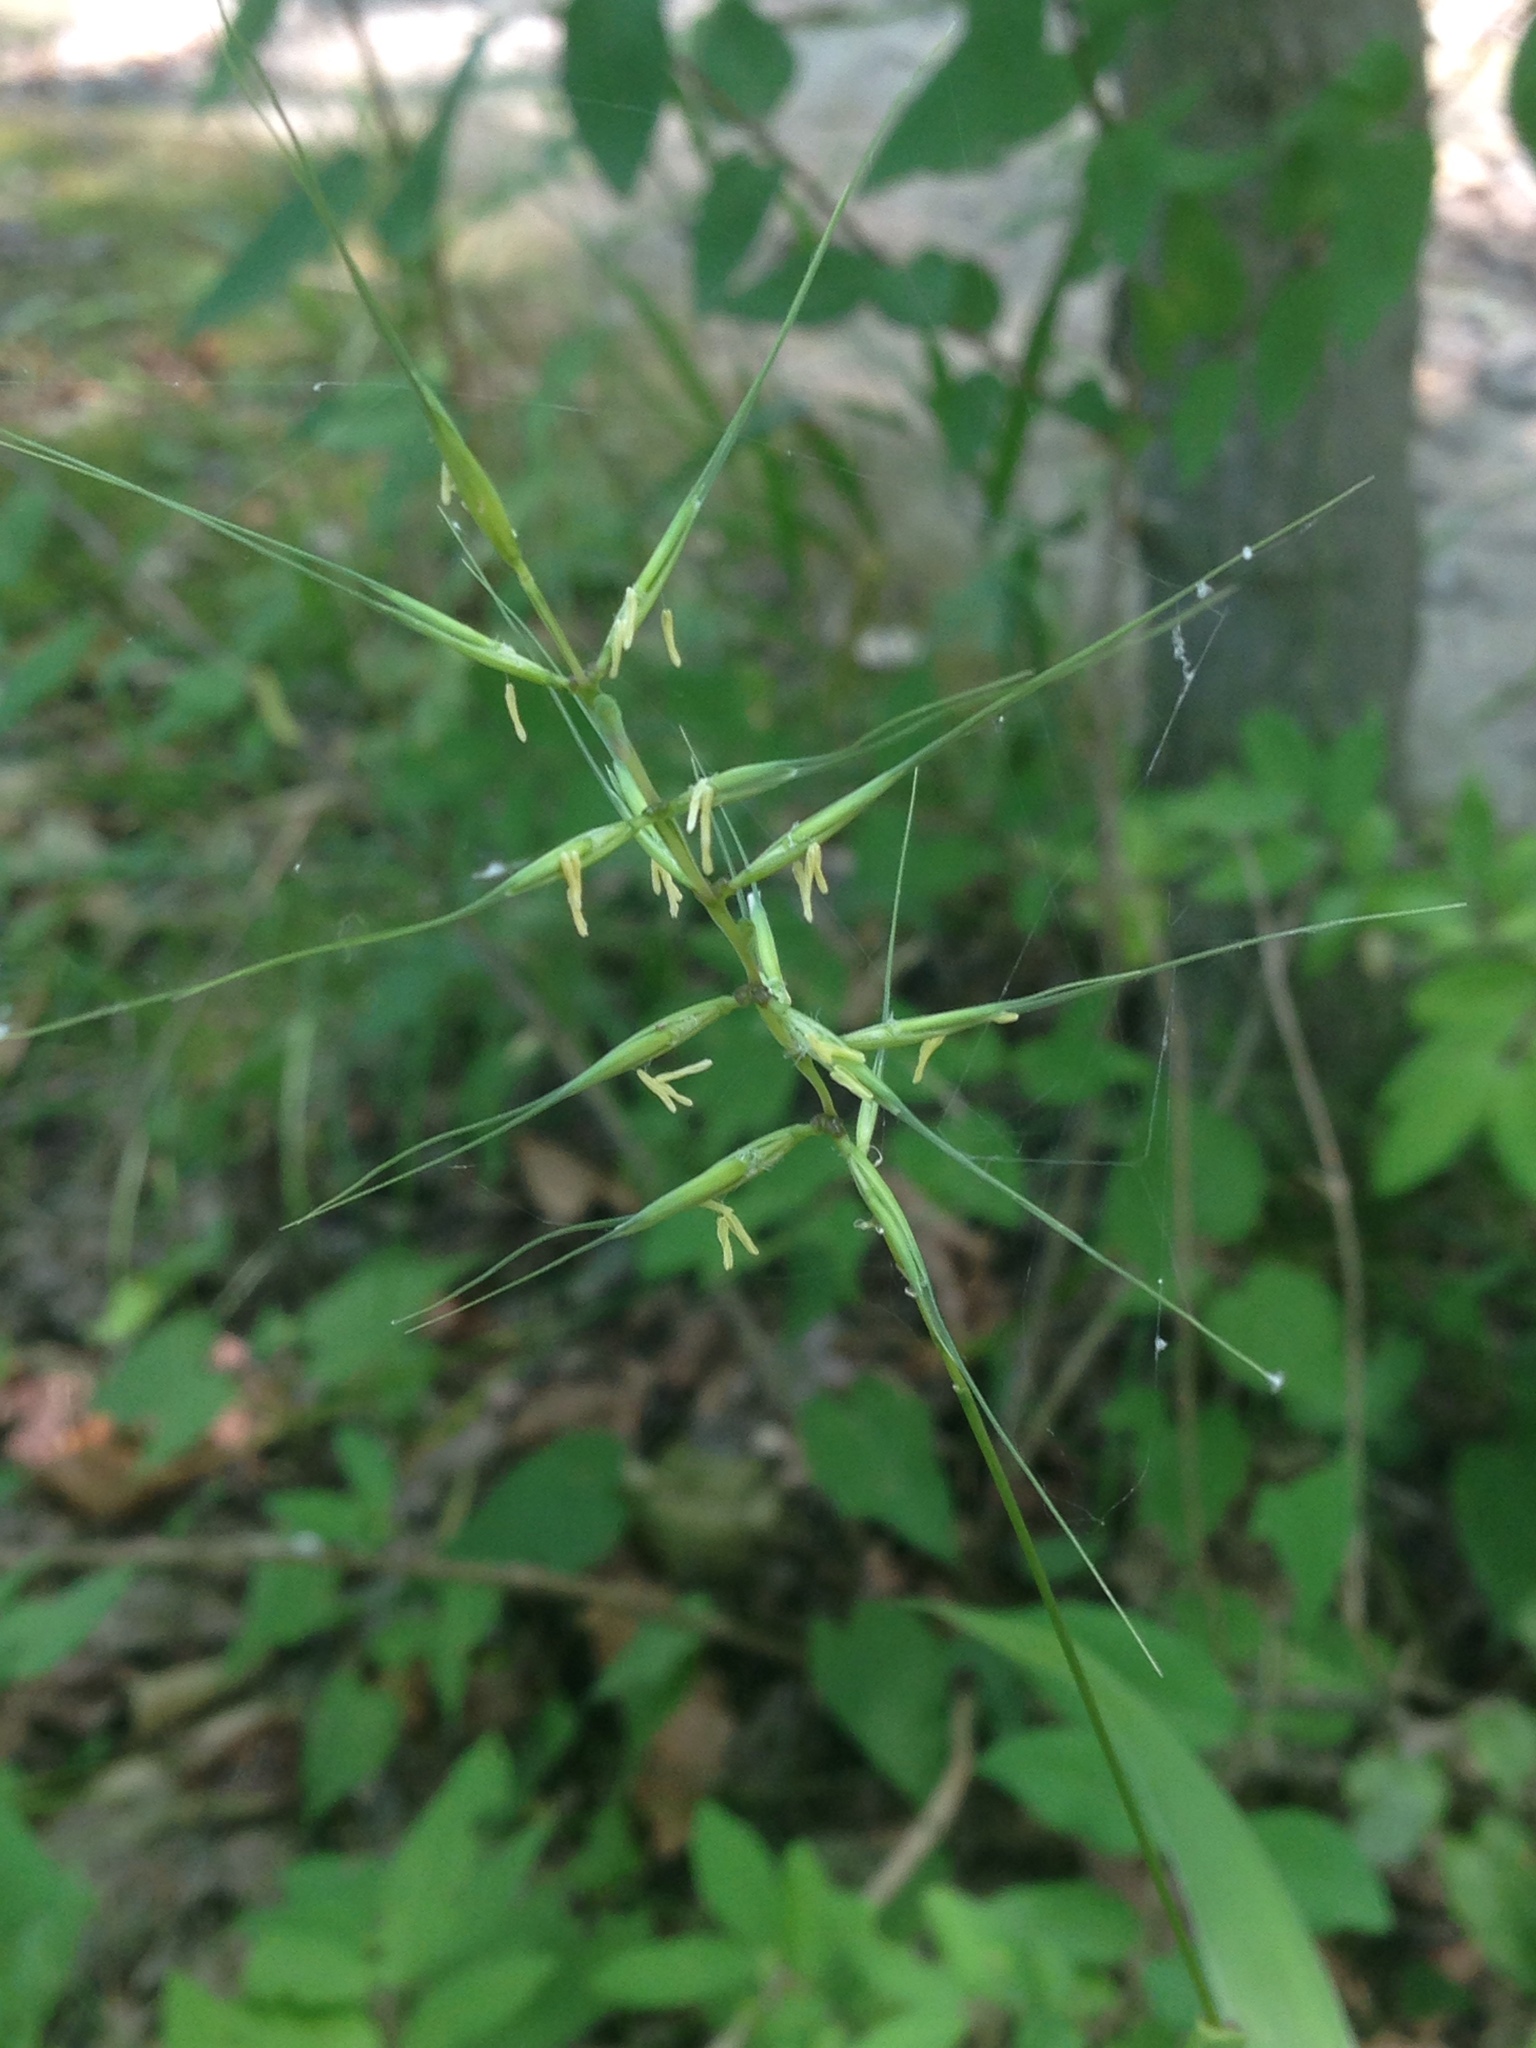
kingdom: Plantae
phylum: Tracheophyta
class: Liliopsida
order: Poales
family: Poaceae
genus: Elymus
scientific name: Elymus hystrix
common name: Bottlebrush grass
